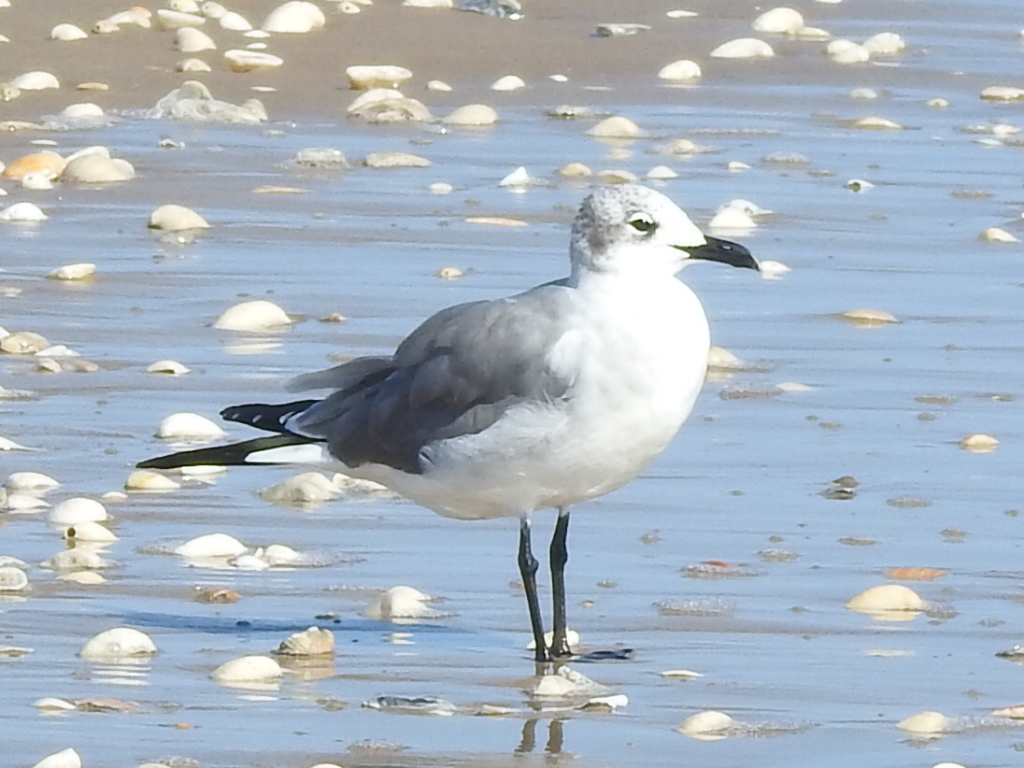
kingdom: Animalia
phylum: Chordata
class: Aves
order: Charadriiformes
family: Laridae
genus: Leucophaeus
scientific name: Leucophaeus atricilla
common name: Laughing gull
